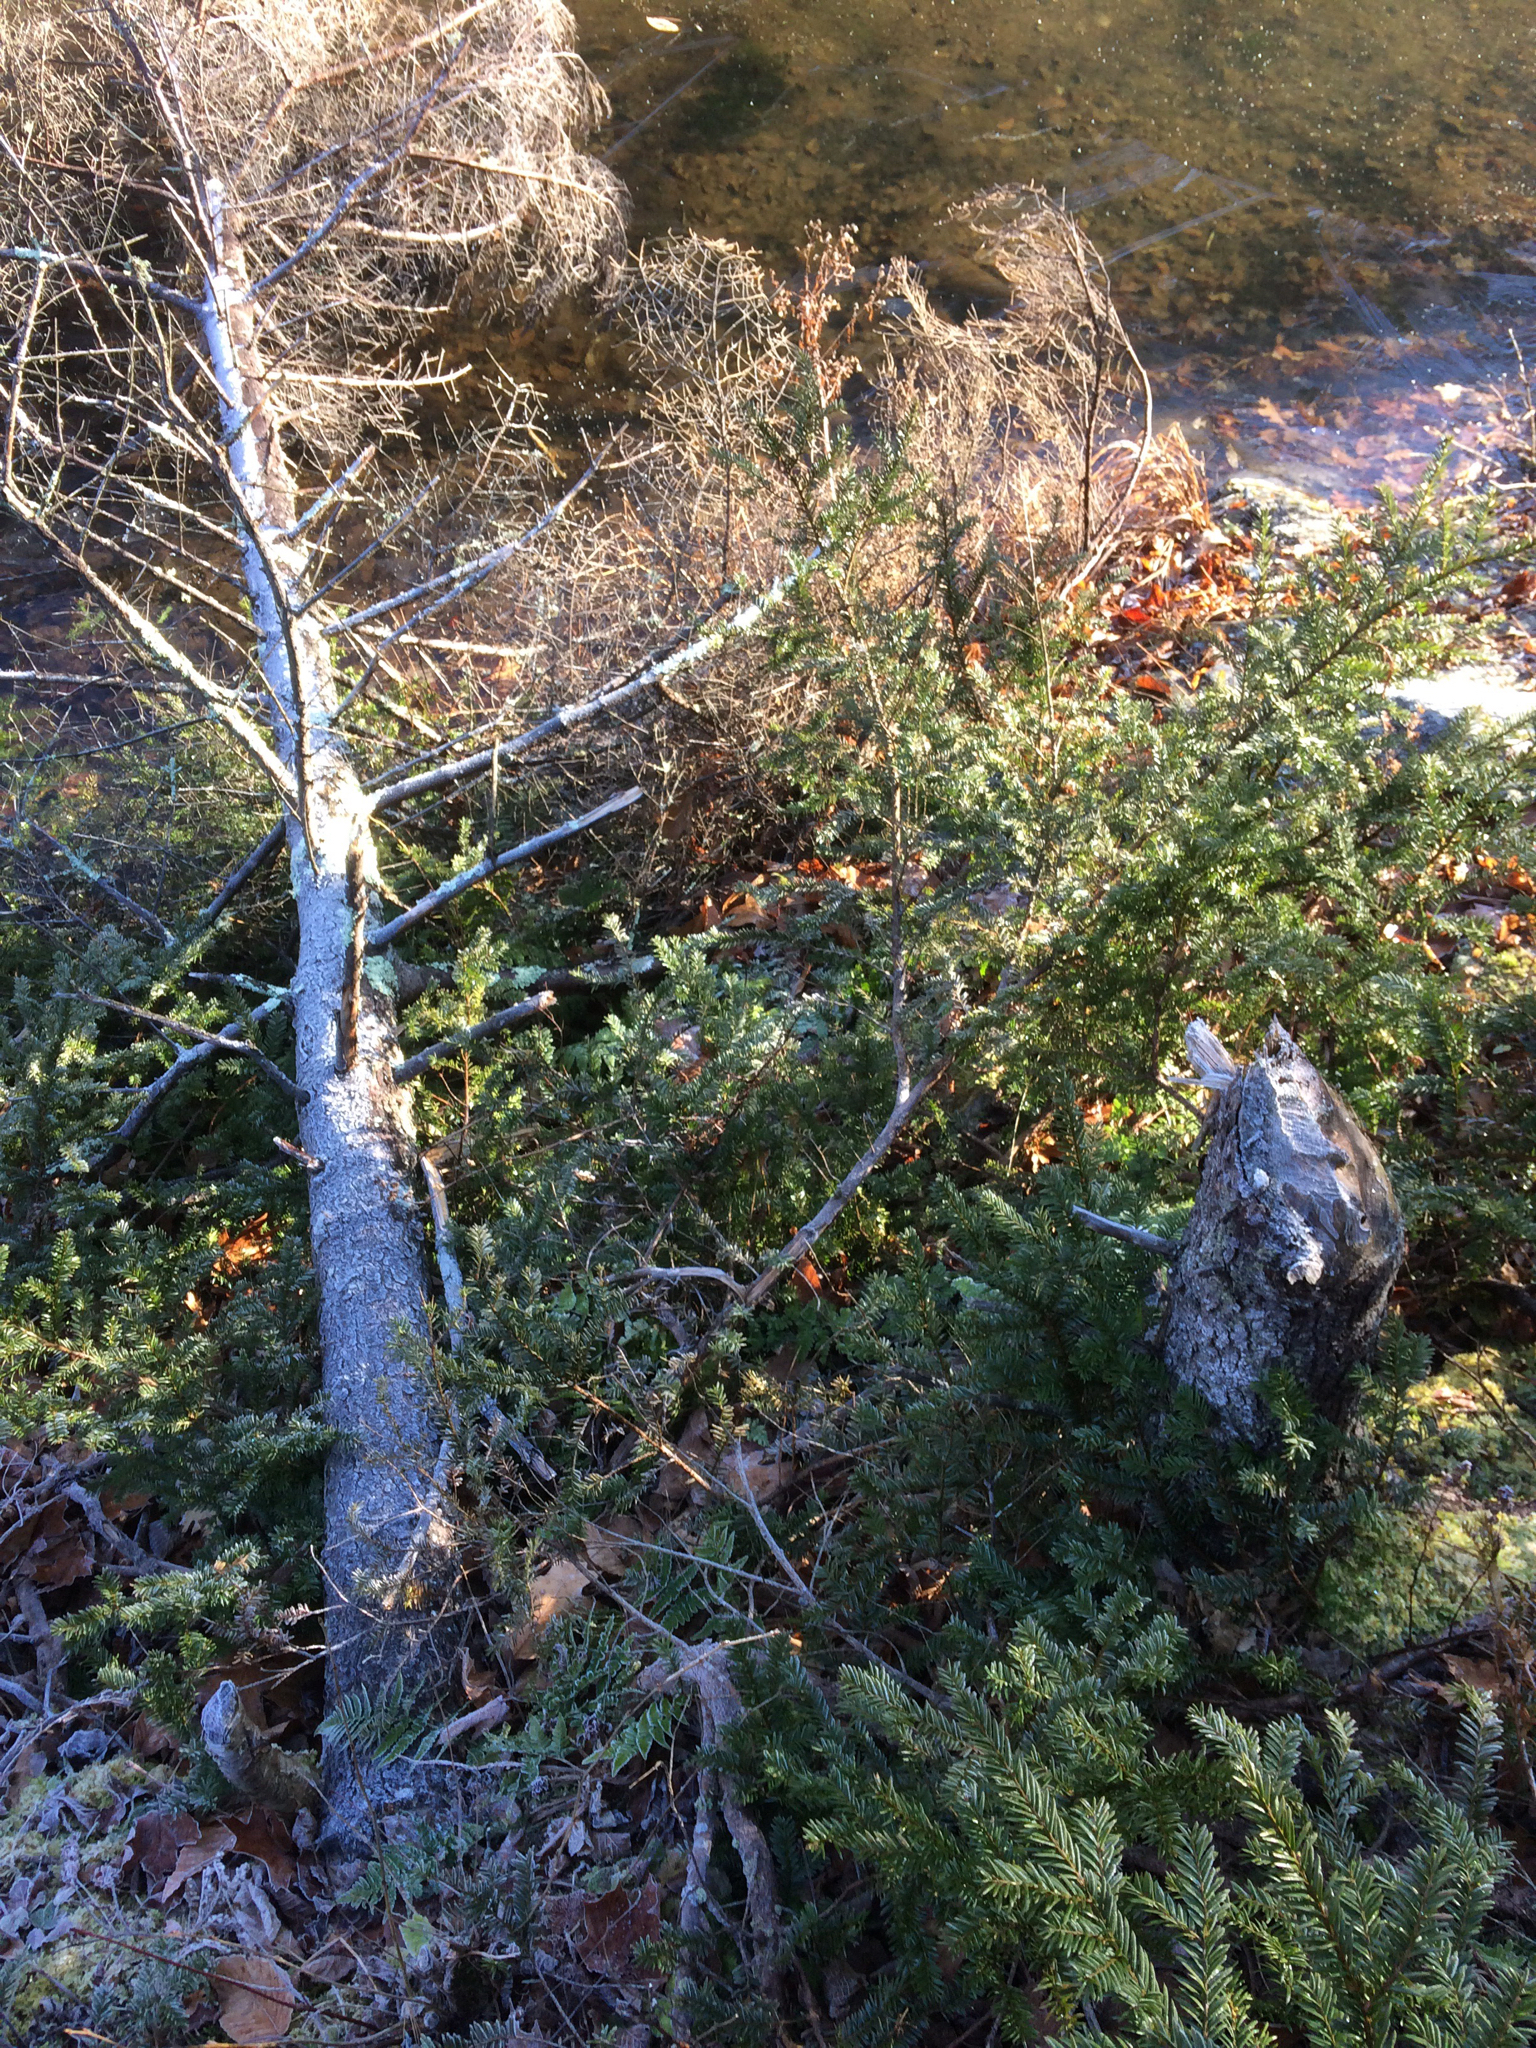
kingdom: Animalia
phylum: Chordata
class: Mammalia
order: Rodentia
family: Castoridae
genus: Castor
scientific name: Castor canadensis
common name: American beaver
